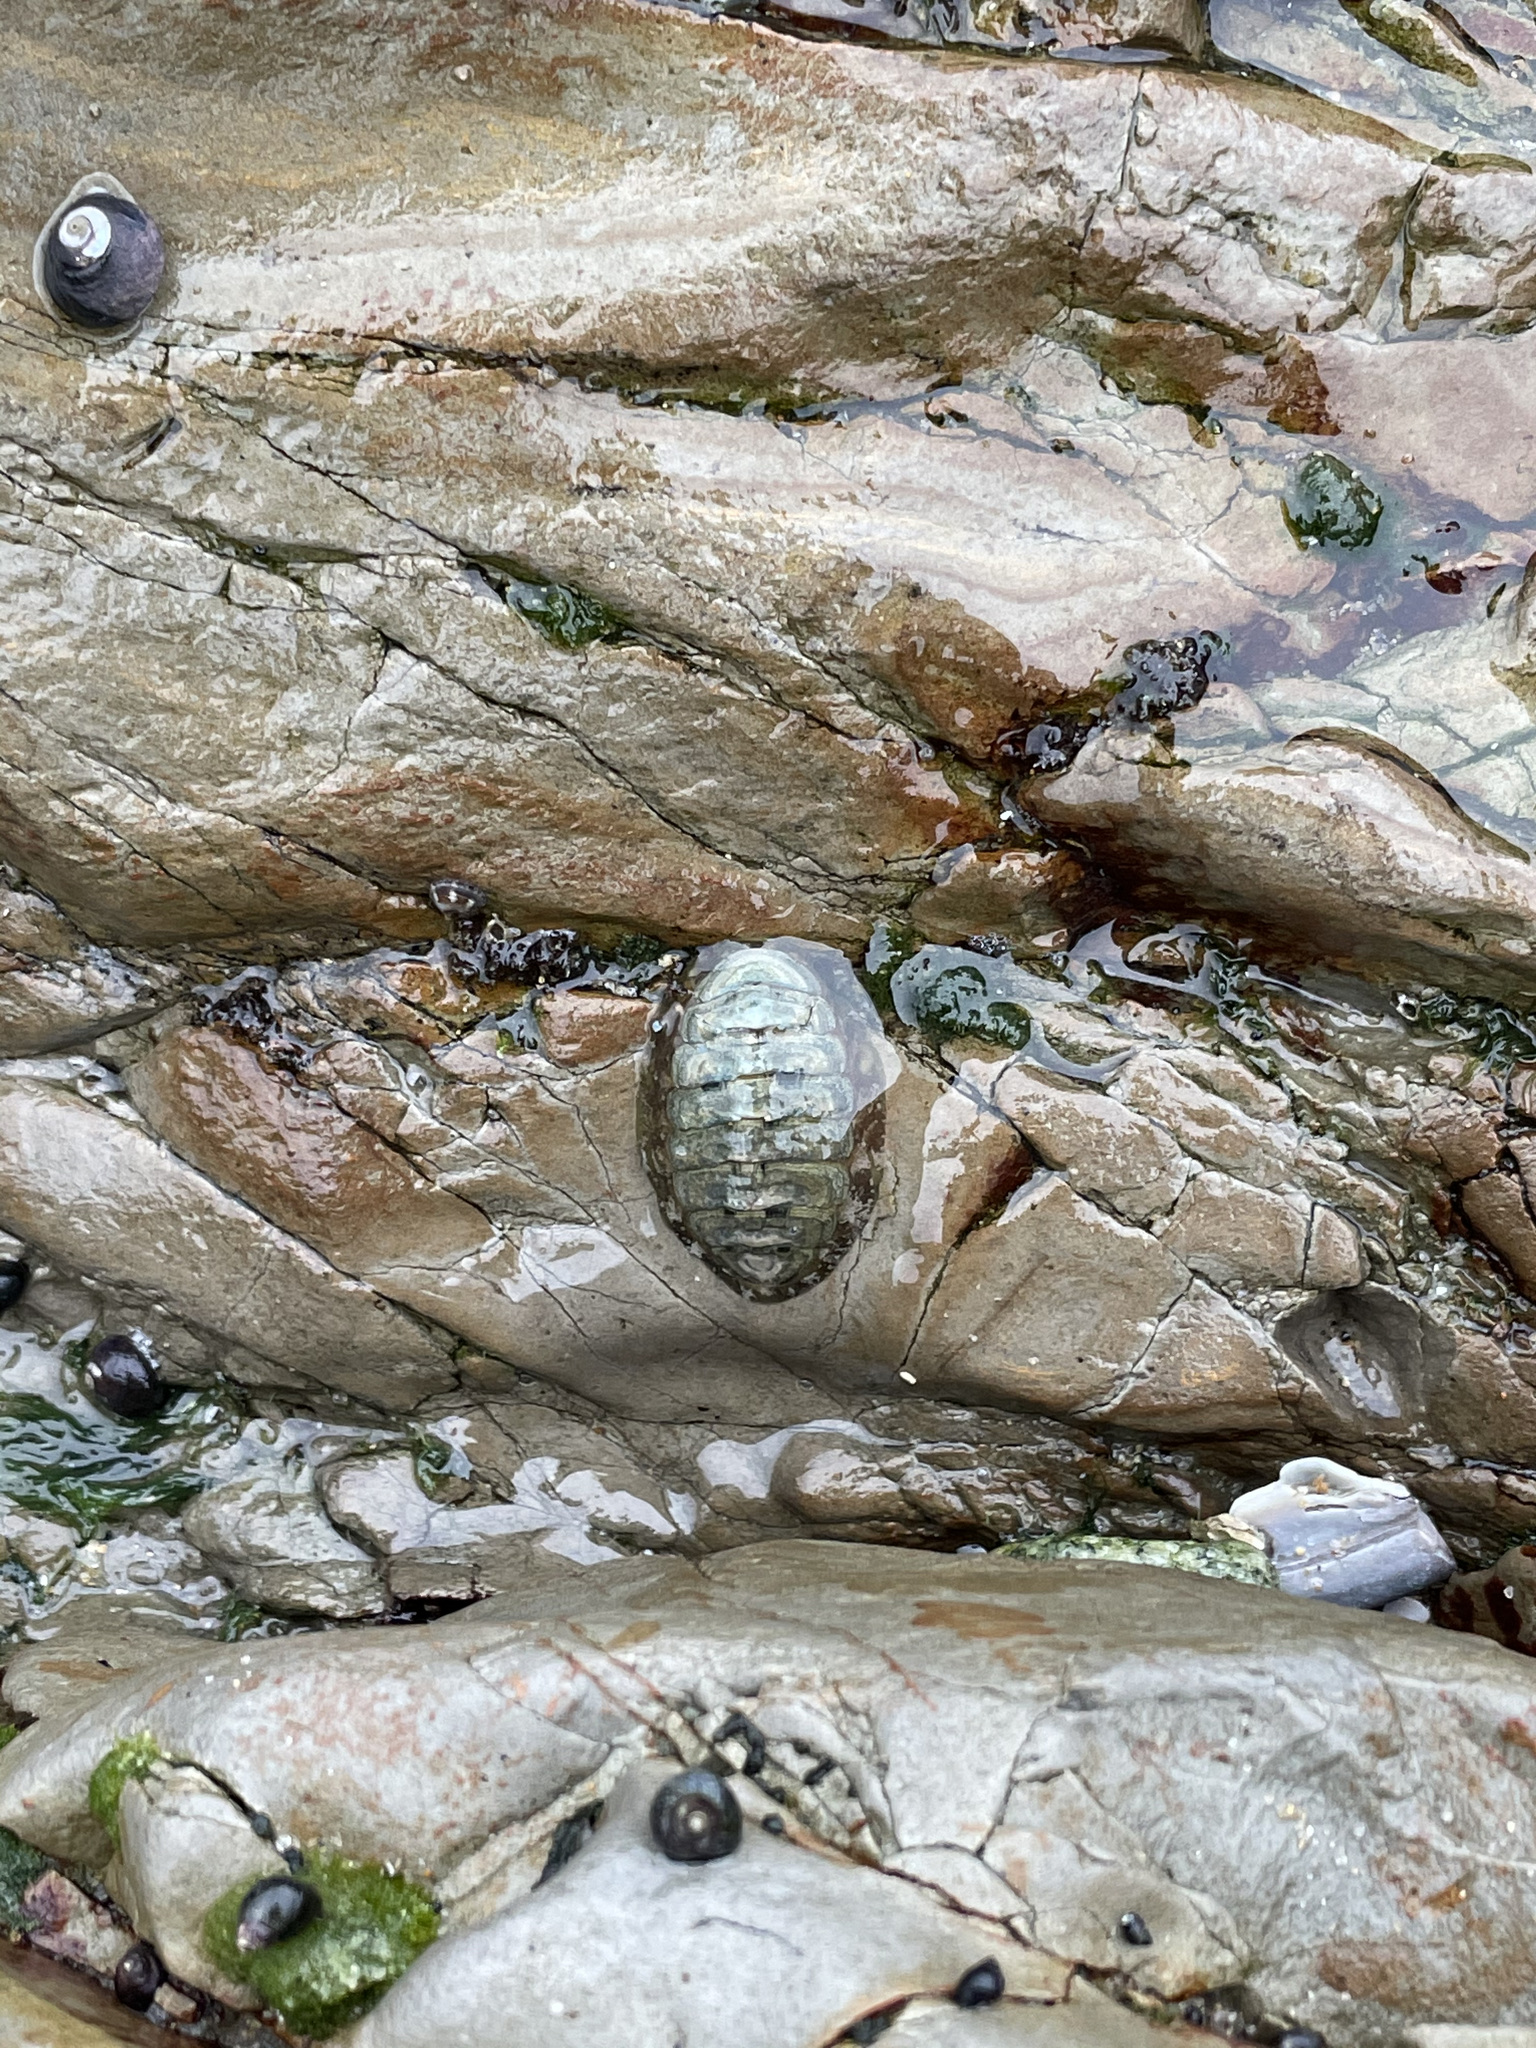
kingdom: Animalia
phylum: Mollusca
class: Polyplacophora
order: Chitonida
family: Tonicellidae
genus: Cyanoplax
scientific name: Cyanoplax hartwegii
